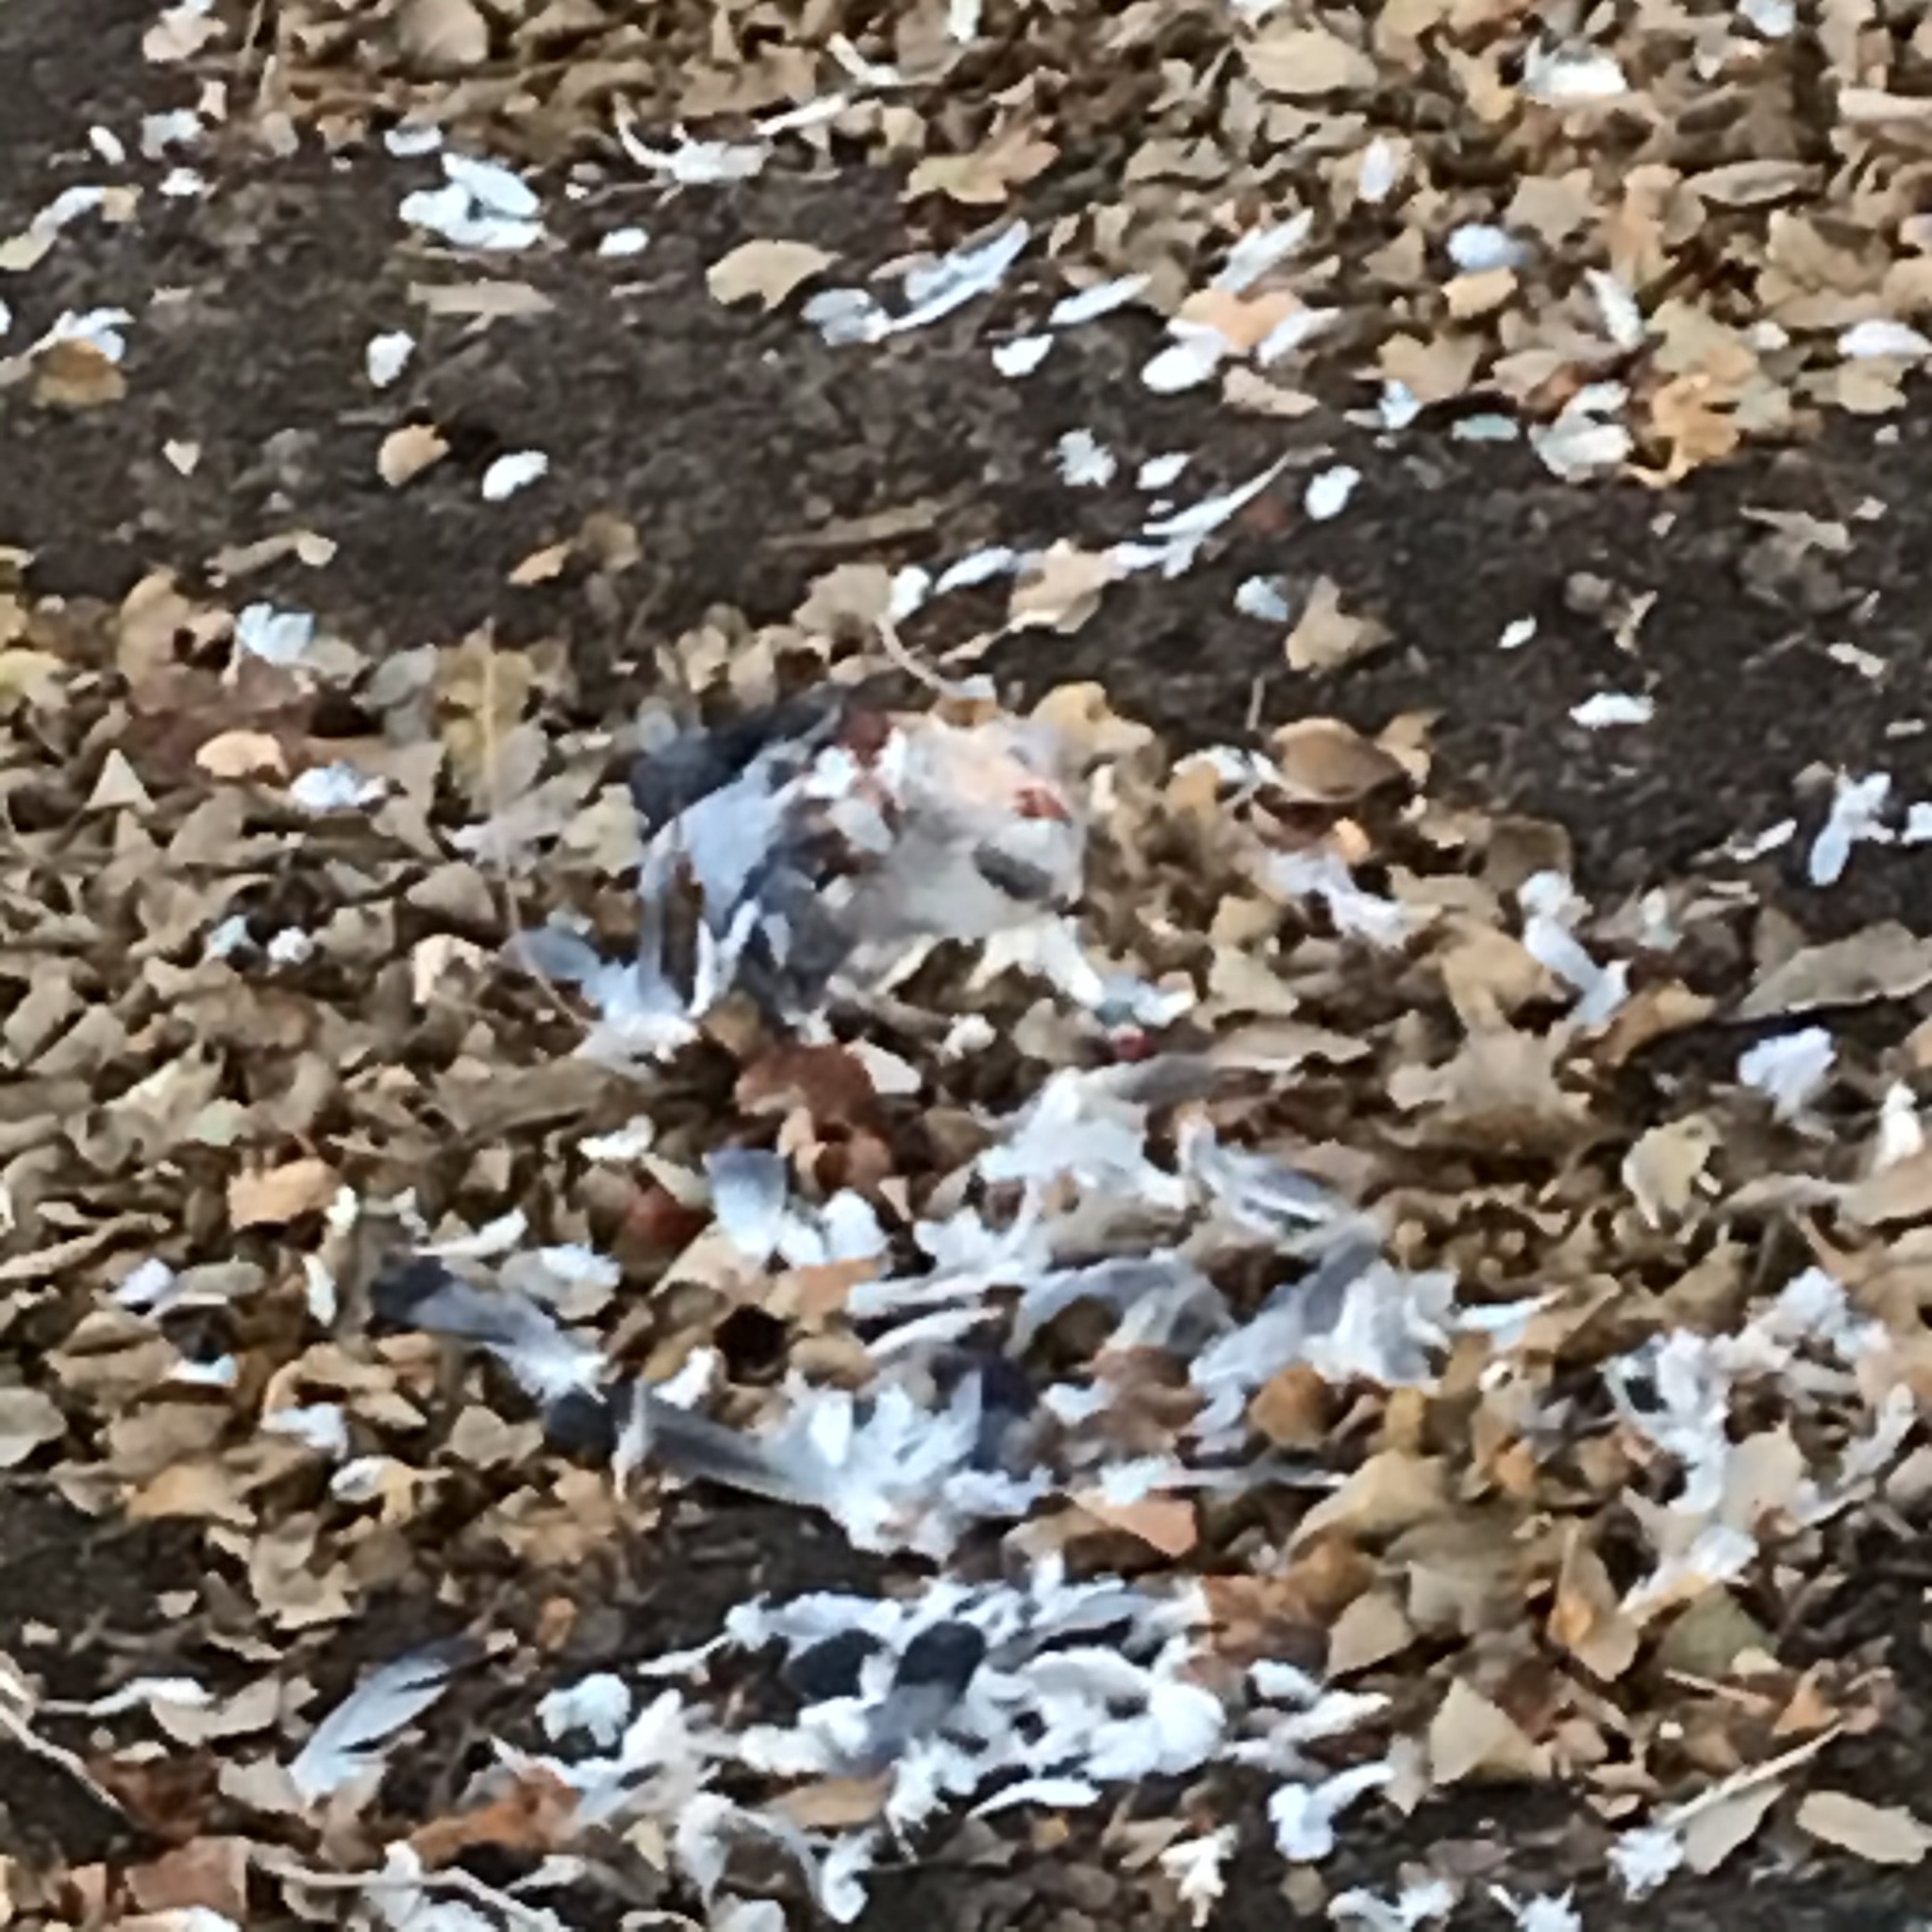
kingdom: Animalia
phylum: Chordata
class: Aves
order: Columbiformes
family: Columbidae
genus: Columba
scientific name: Columba livia
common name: Rock pigeon
